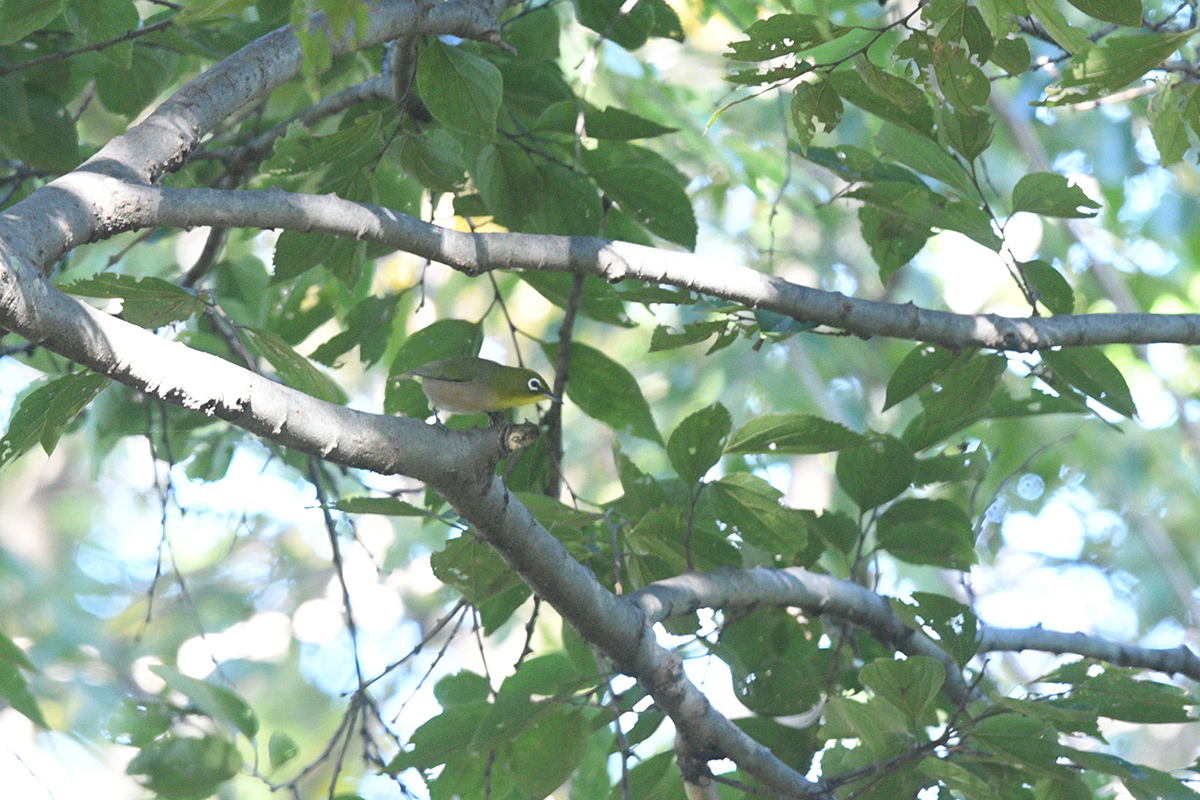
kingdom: Animalia
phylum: Chordata
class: Aves
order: Passeriformes
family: Zosteropidae
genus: Zosterops
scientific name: Zosterops japonicus
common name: Japanese white-eye
